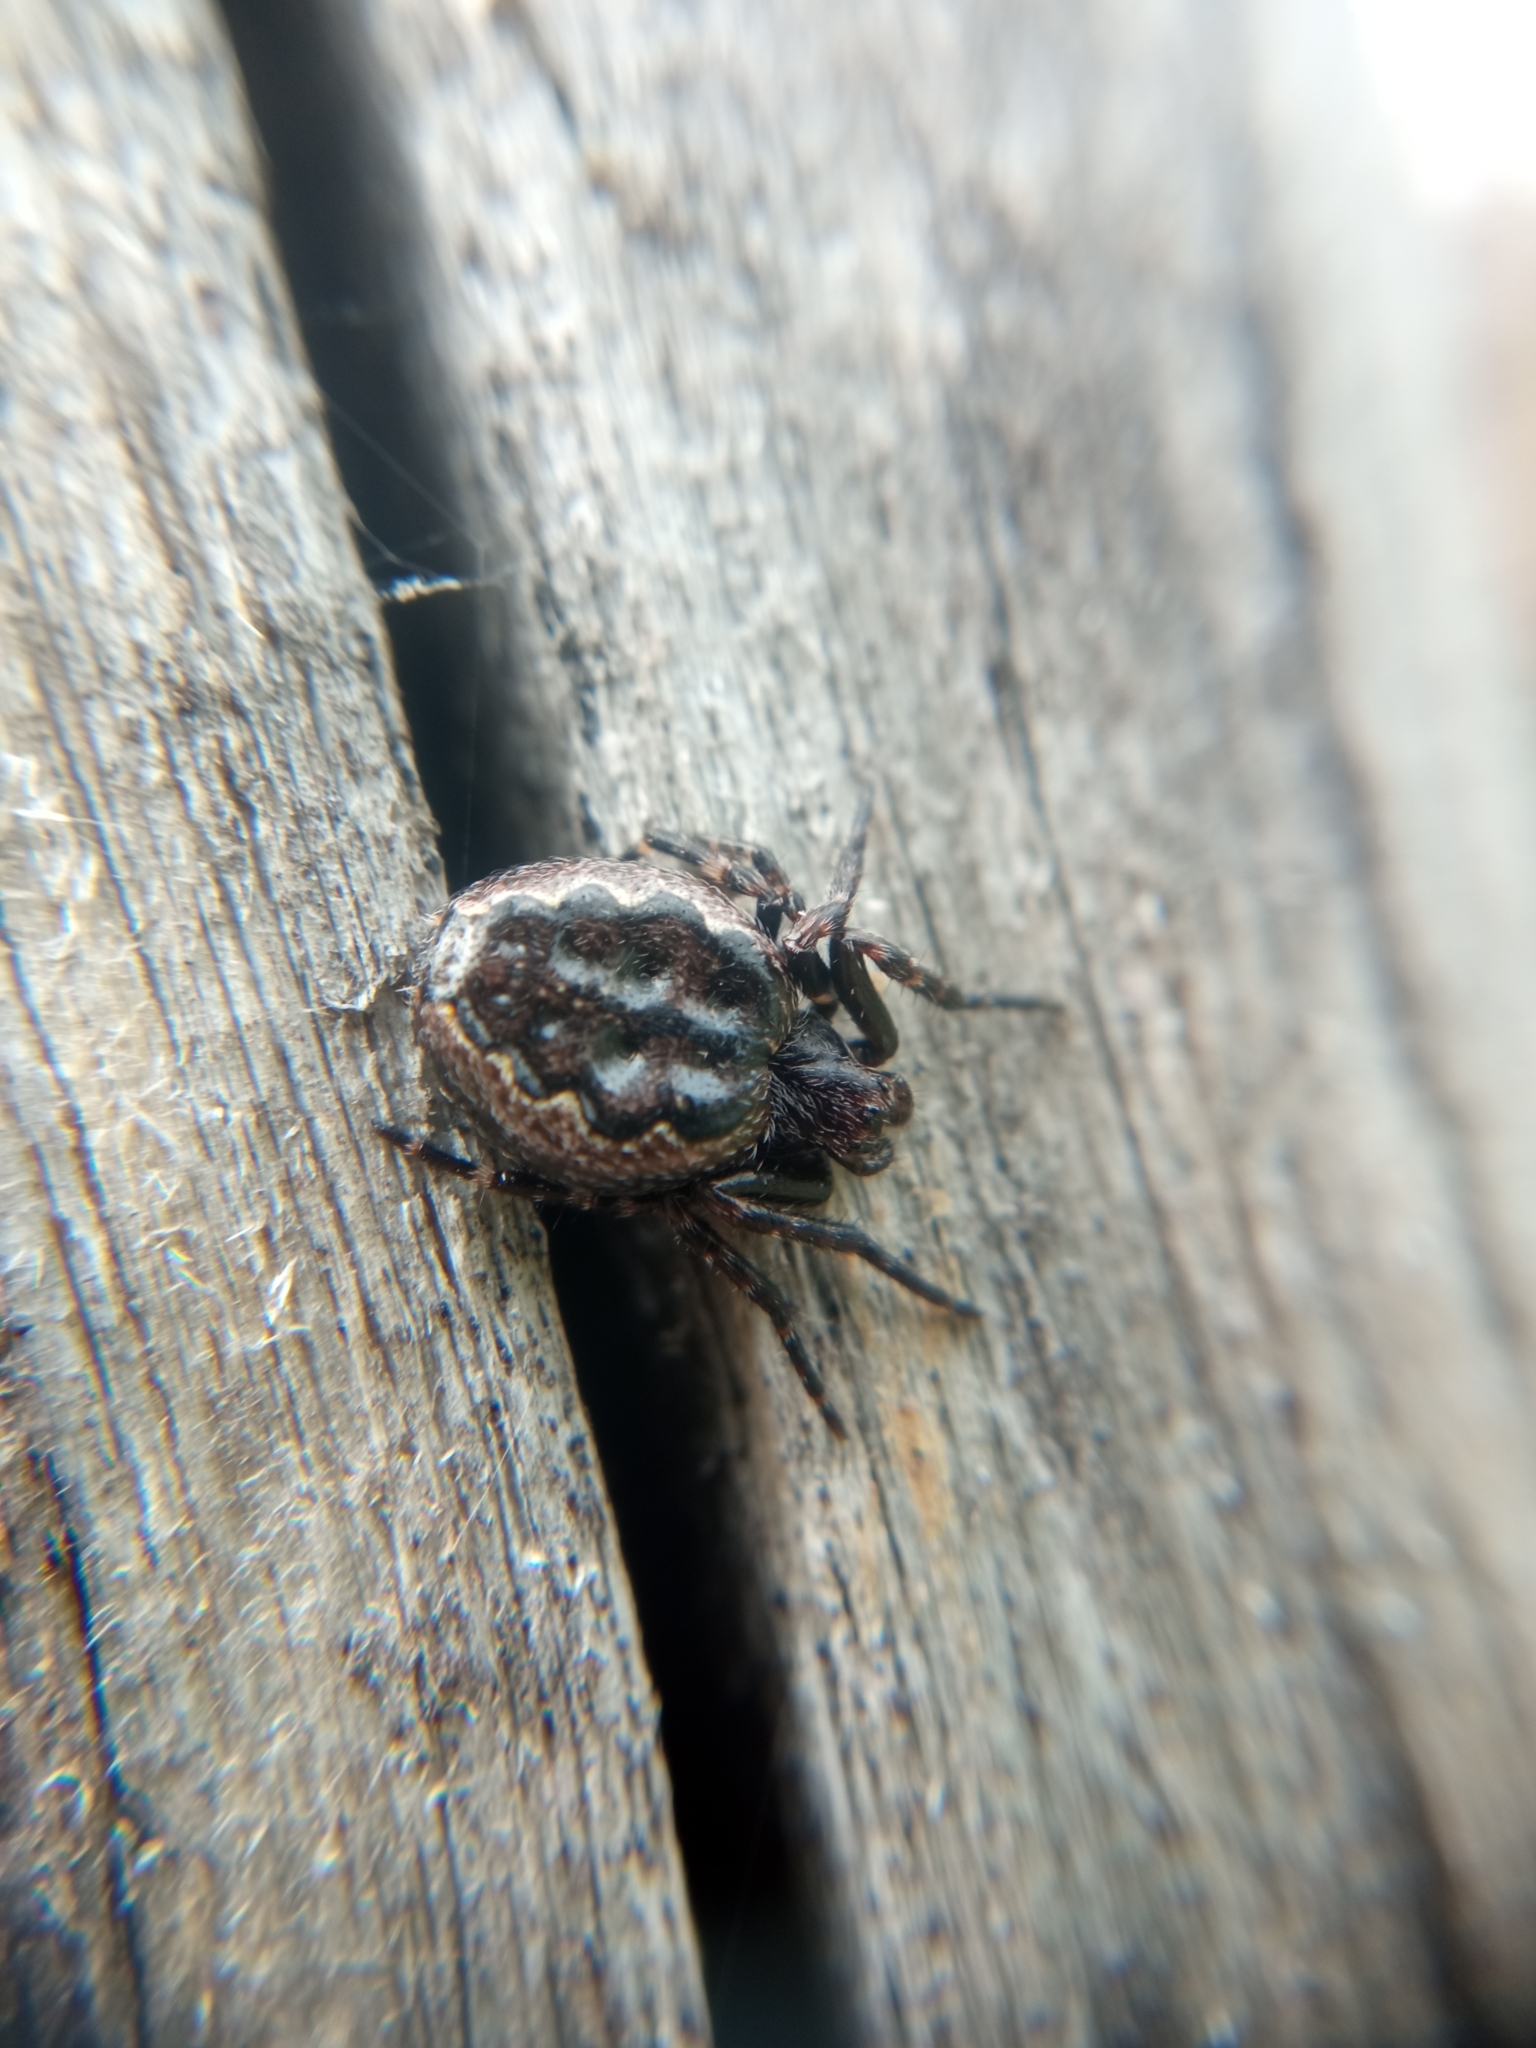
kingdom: Animalia
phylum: Arthropoda
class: Arachnida
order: Araneae
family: Araneidae
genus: Nuctenea
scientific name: Nuctenea umbratica
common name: Toad spider
